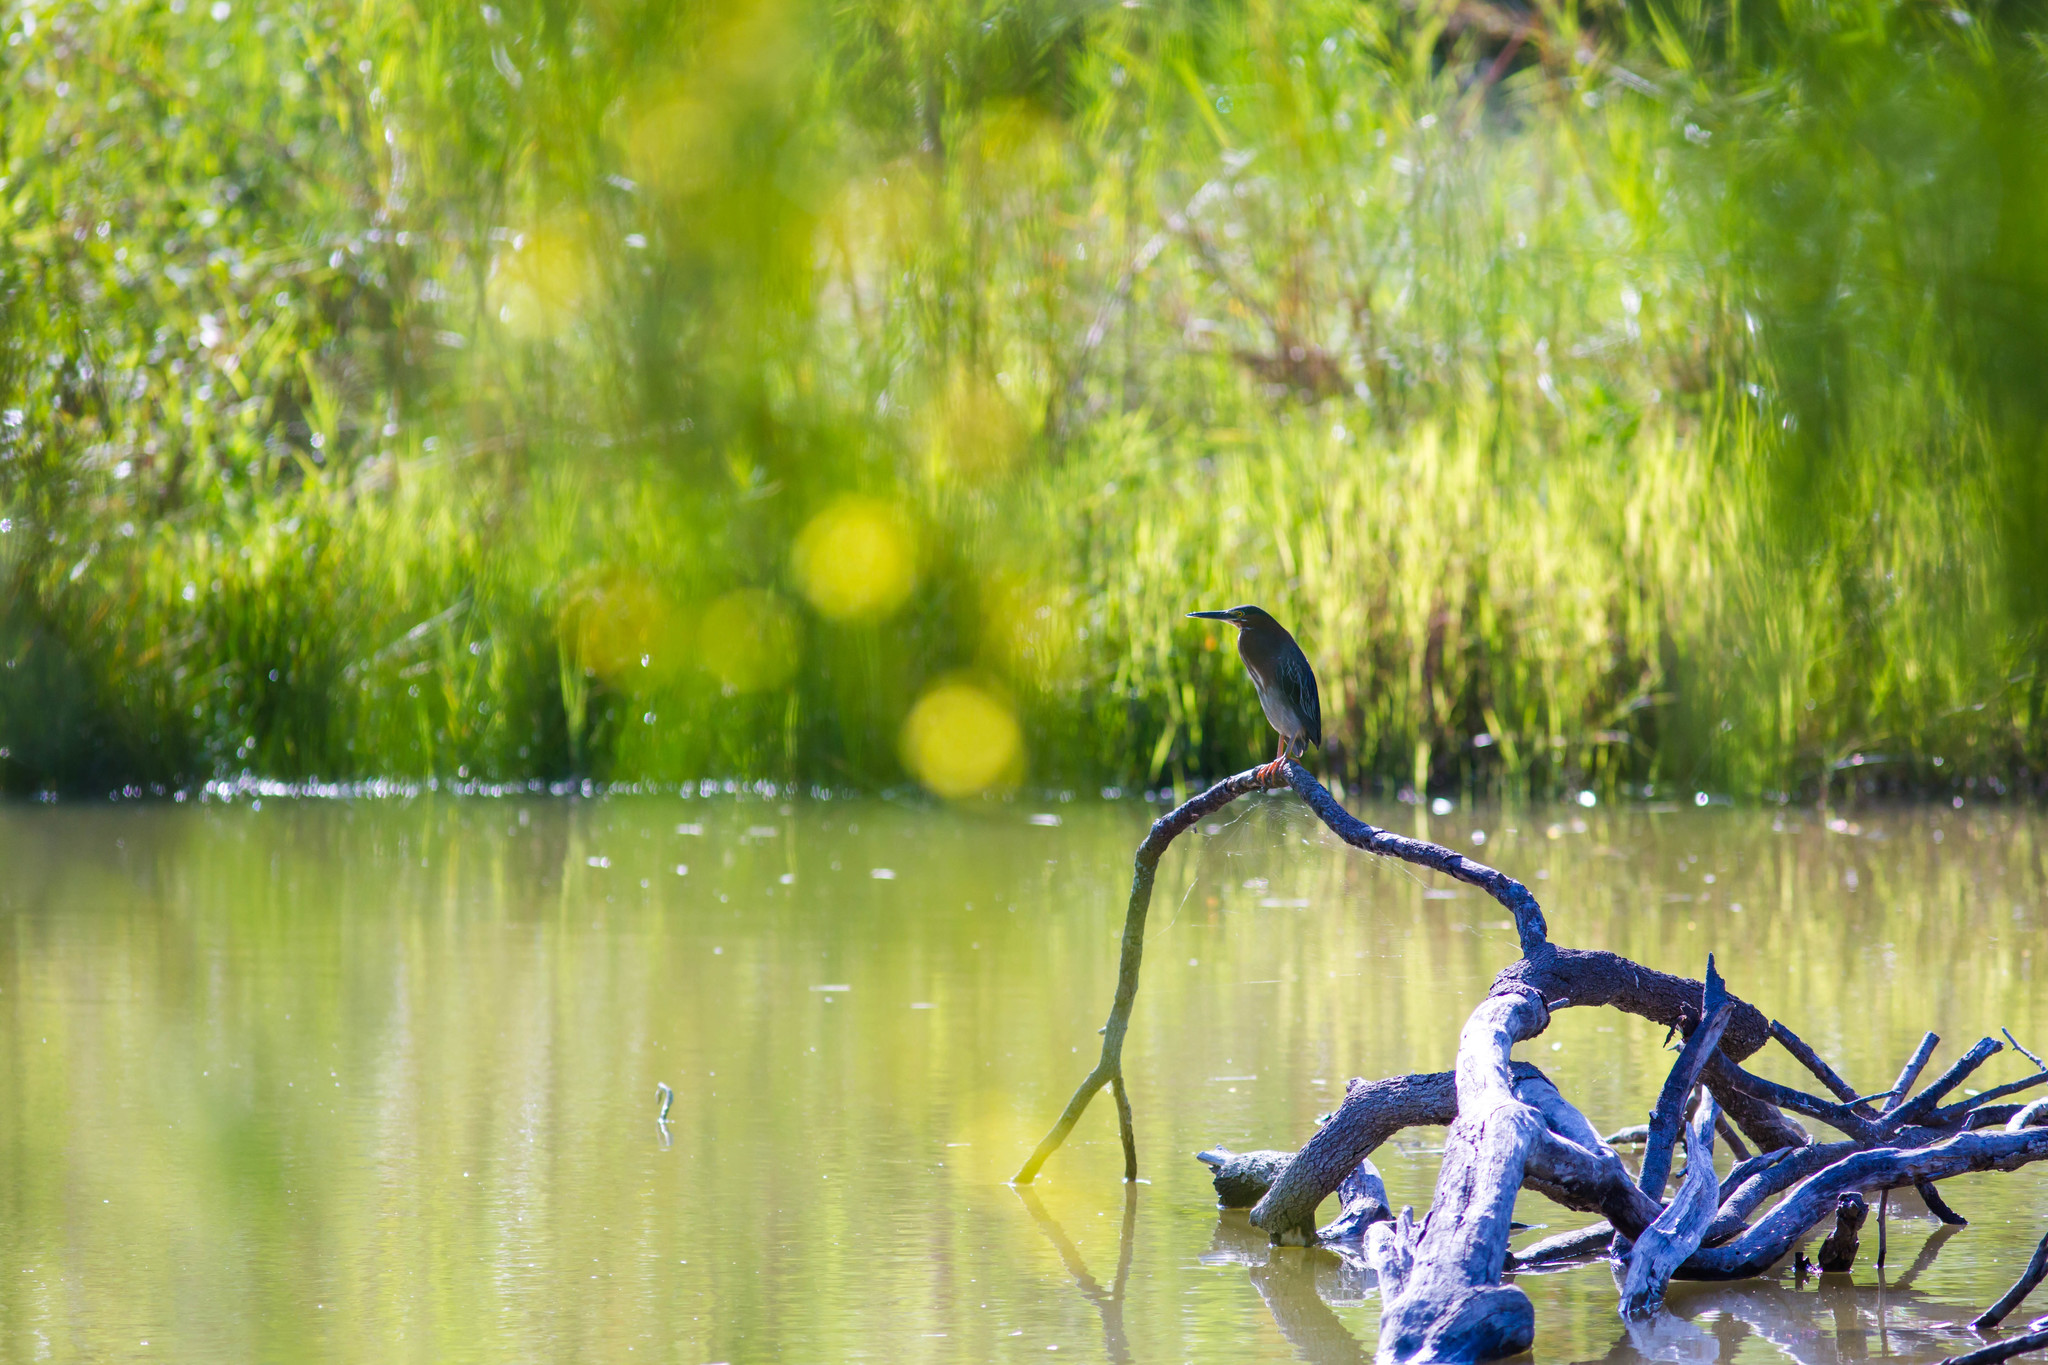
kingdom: Animalia
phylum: Chordata
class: Aves
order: Pelecaniformes
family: Ardeidae
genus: Butorides
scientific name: Butorides virescens
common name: Green heron
